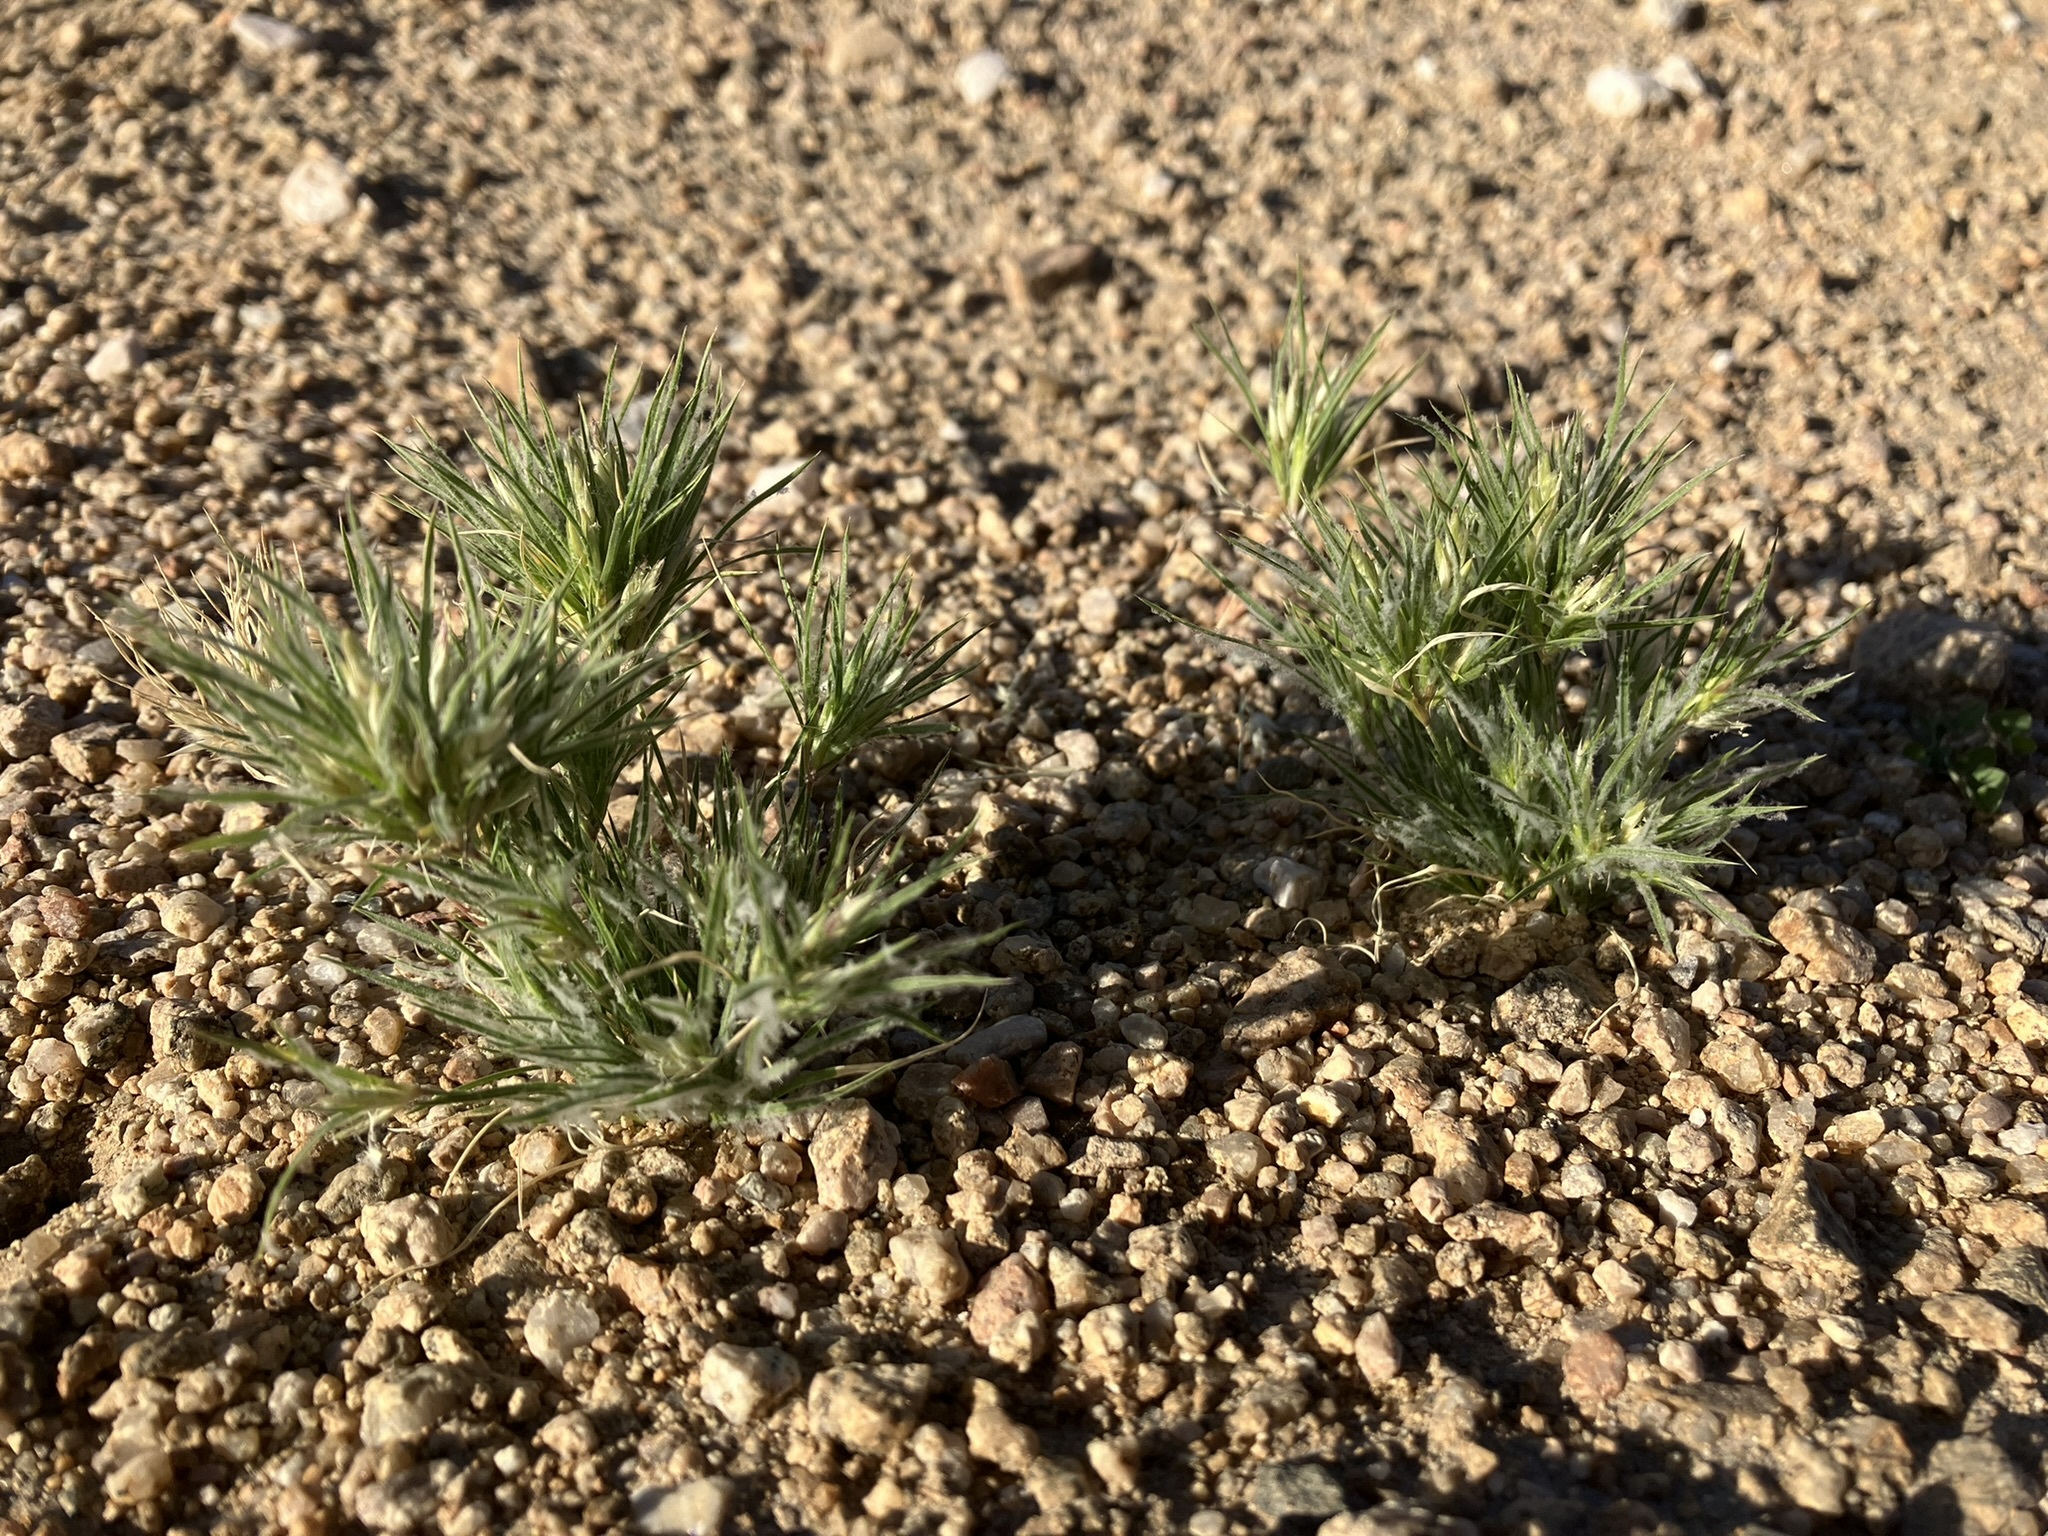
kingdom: Plantae
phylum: Tracheophyta
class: Liliopsida
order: Poales
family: Poaceae
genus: Dasyochloa
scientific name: Dasyochloa pulchella
